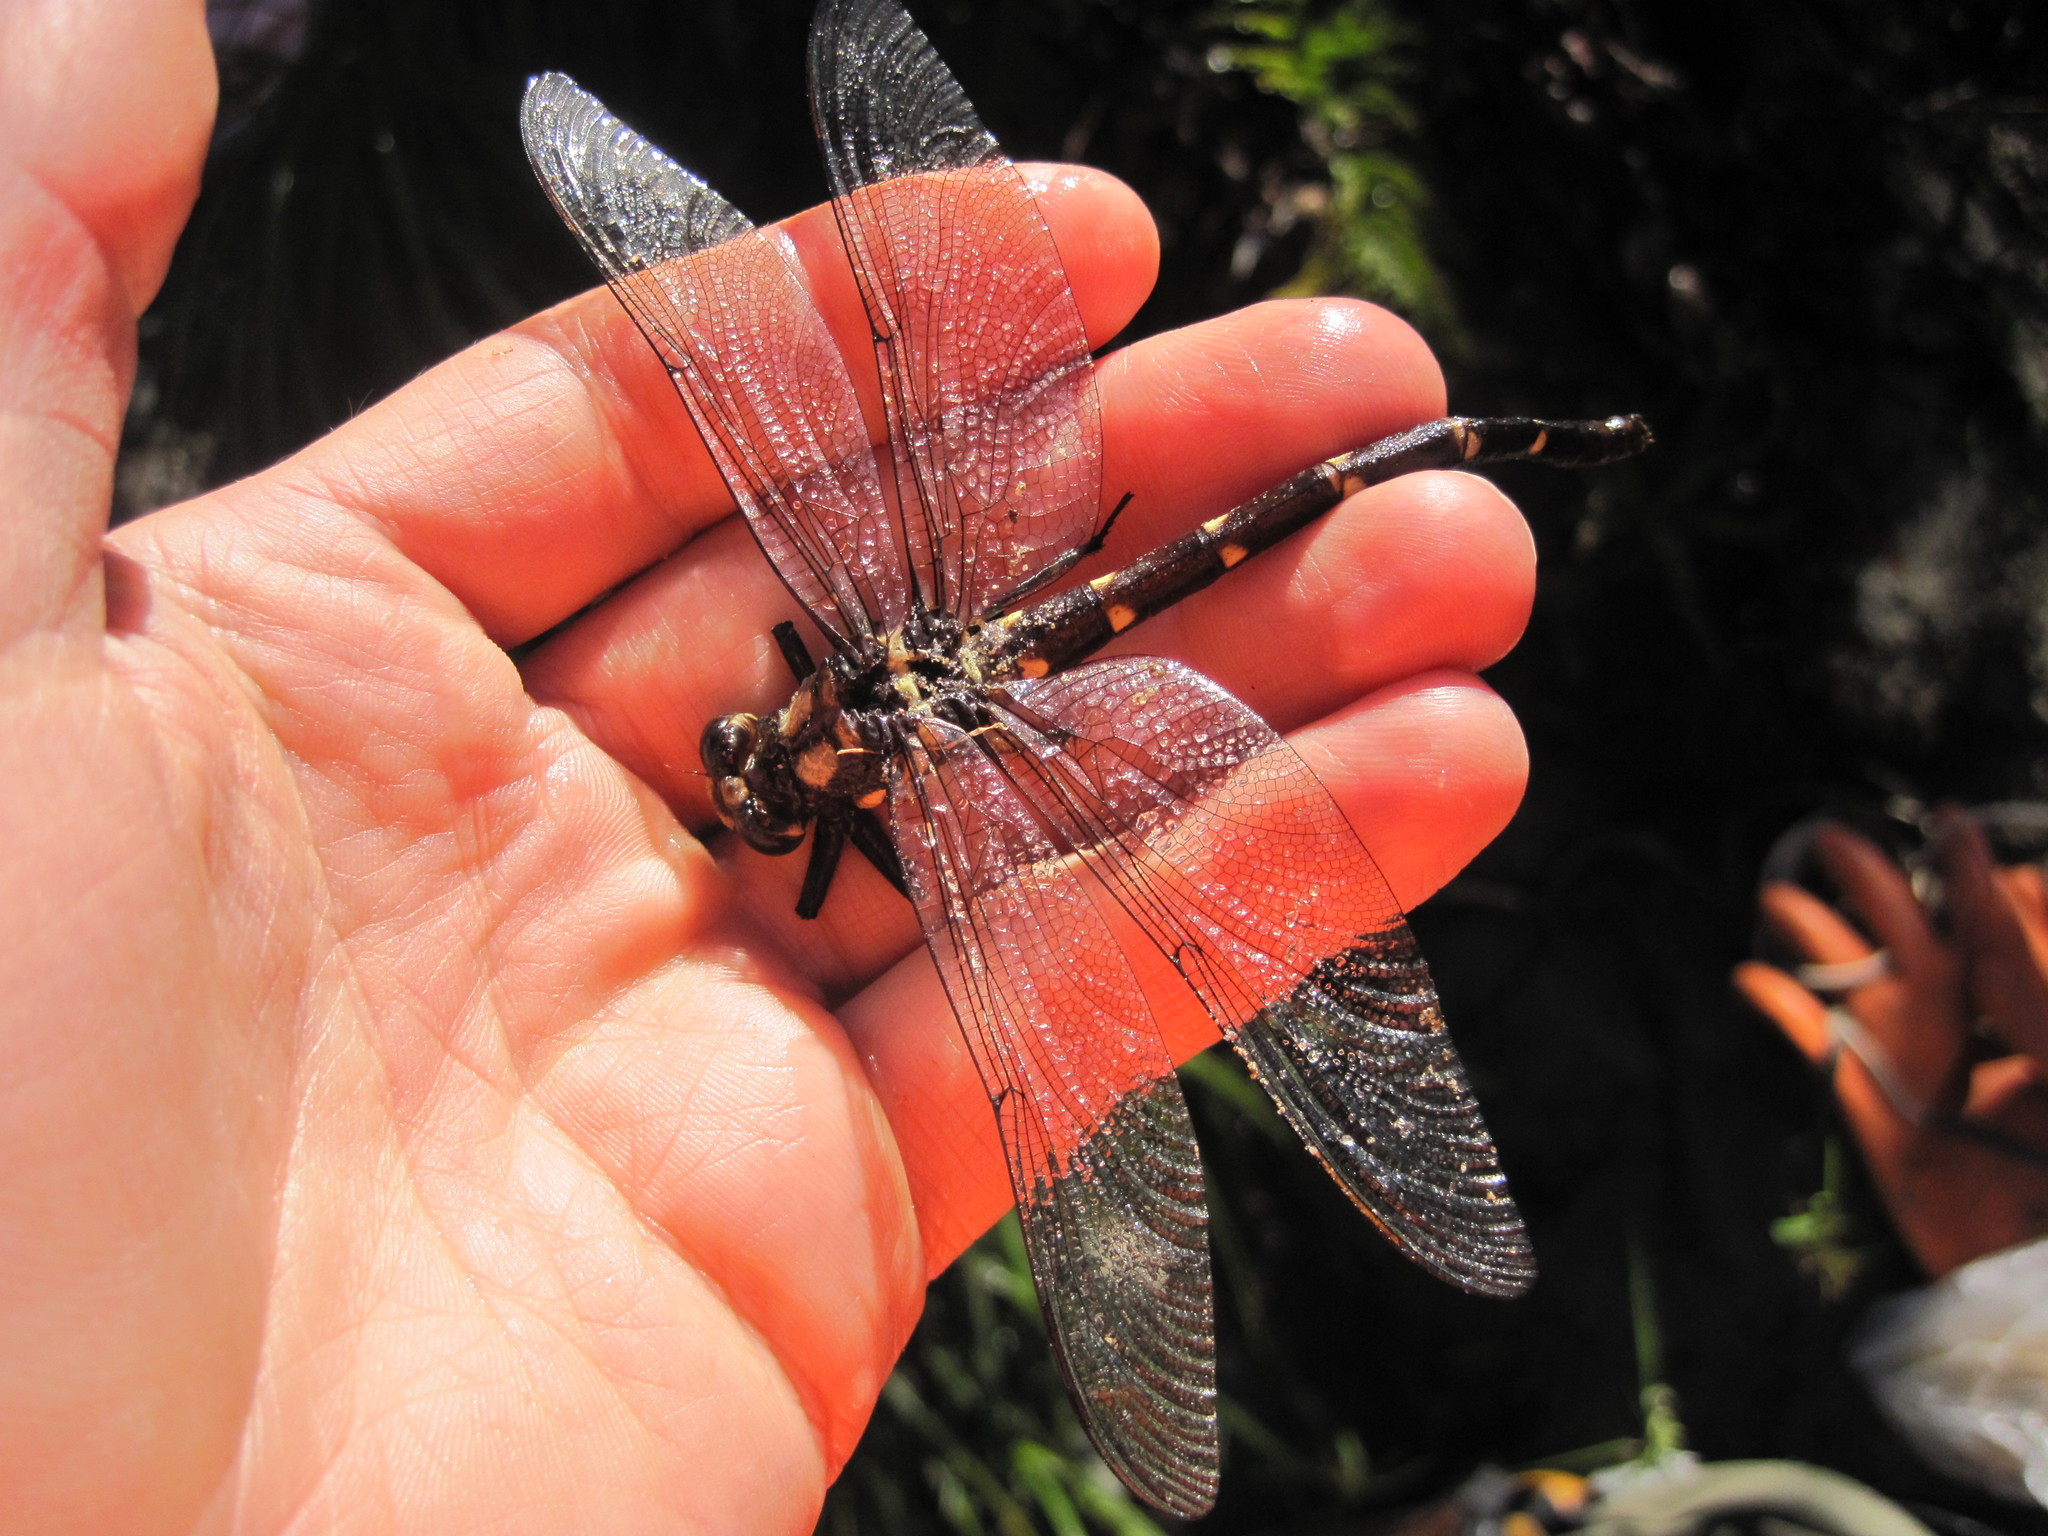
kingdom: Animalia
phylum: Arthropoda
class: Insecta
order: Odonata
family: Petaluridae
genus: Uropetala
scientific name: Uropetala carovei
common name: Bush giant dragonfly
